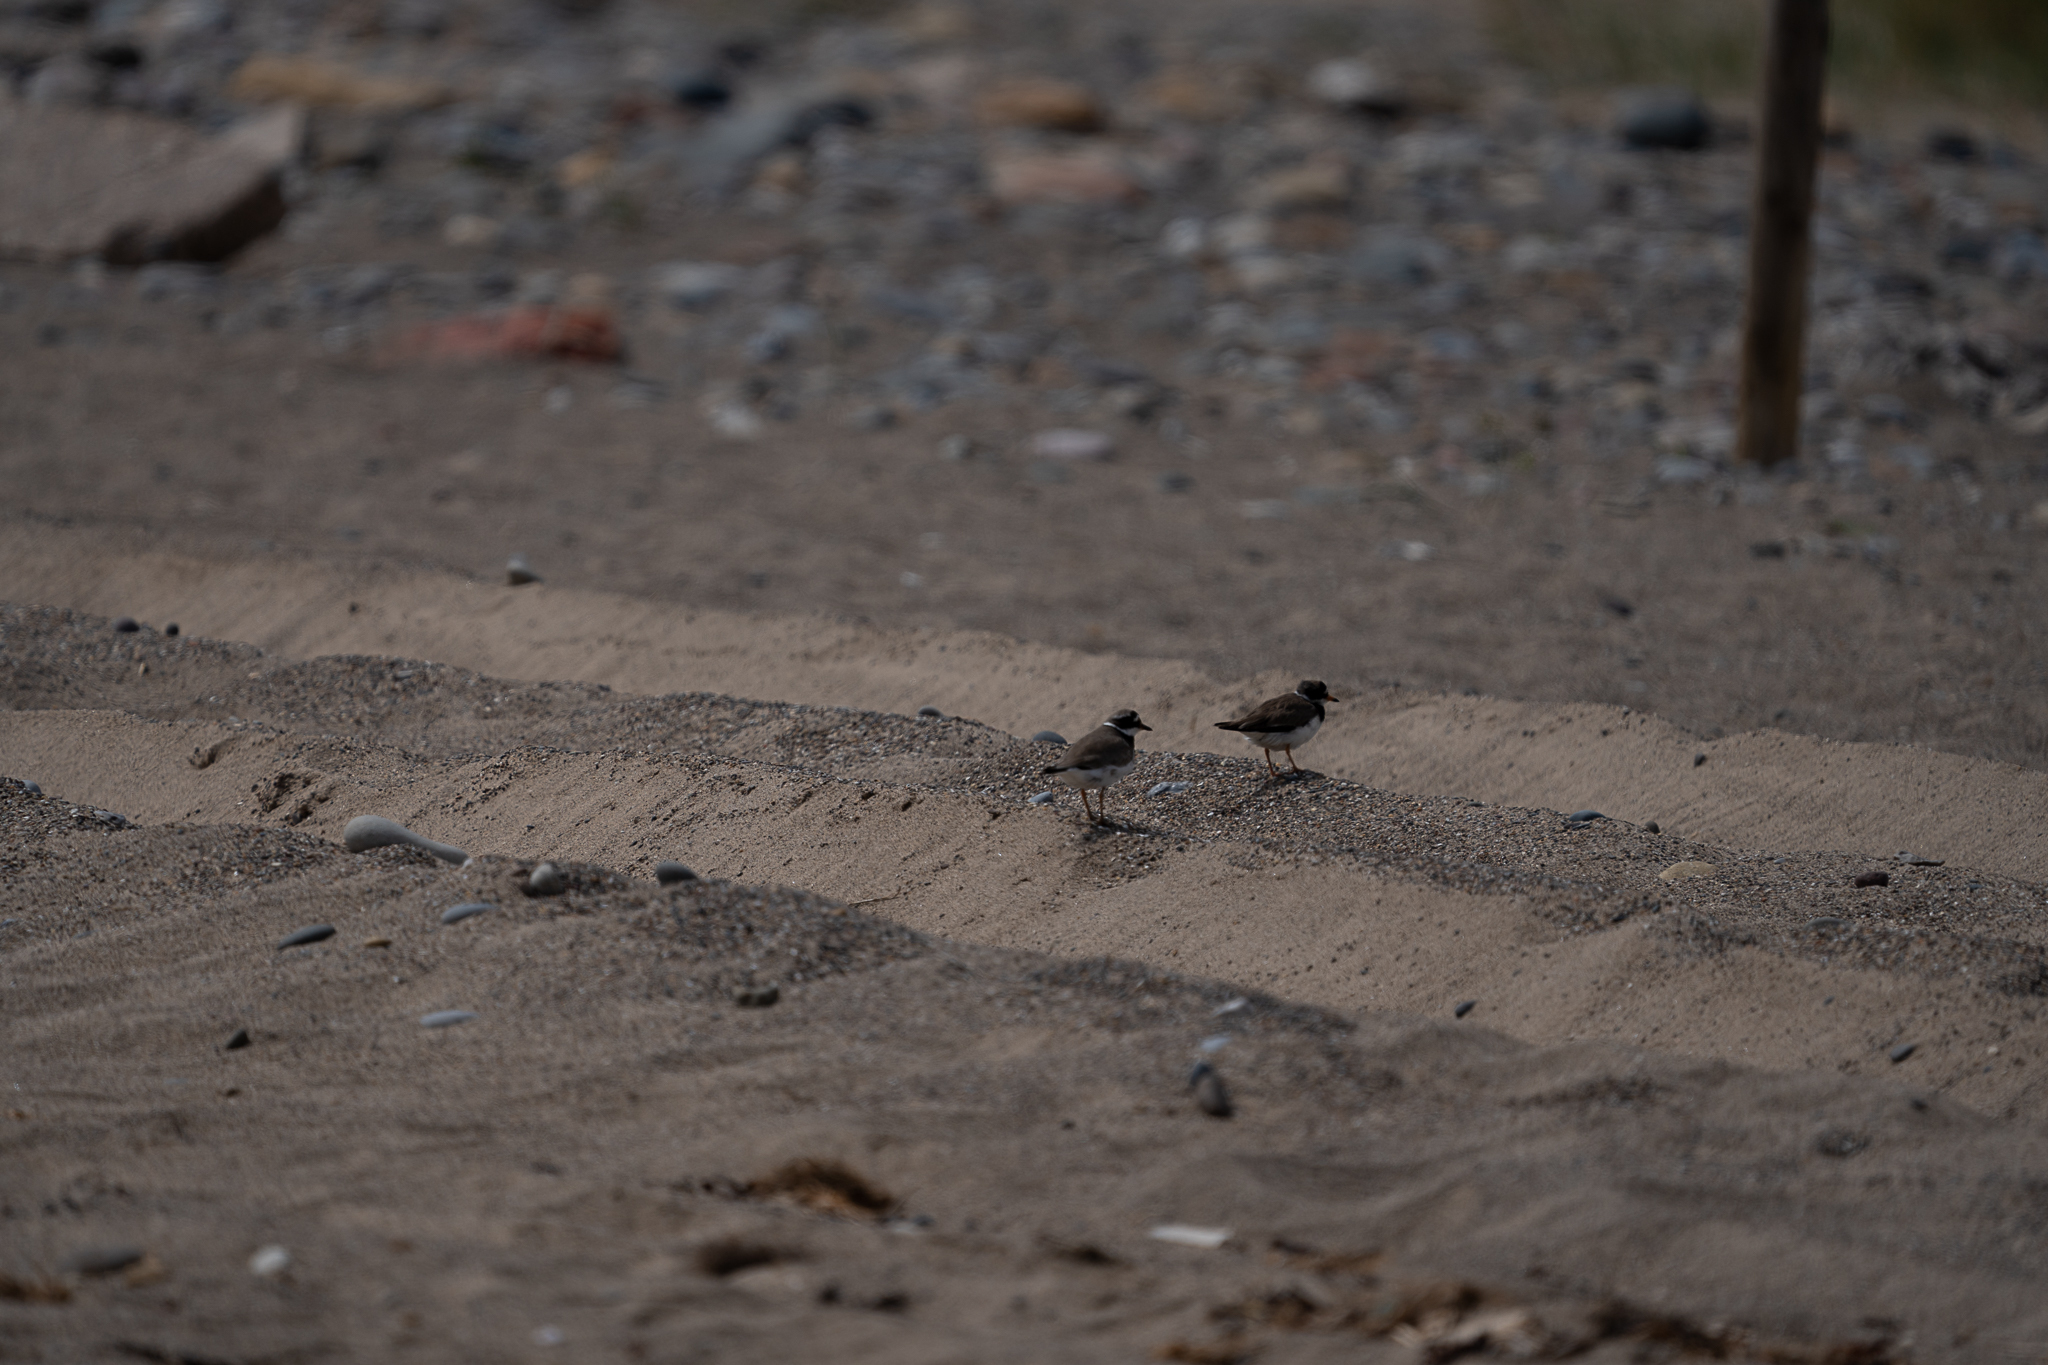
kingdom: Animalia
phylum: Chordata
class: Aves
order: Charadriiformes
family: Charadriidae
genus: Charadrius
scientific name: Charadrius hiaticula
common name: Common ringed plover
